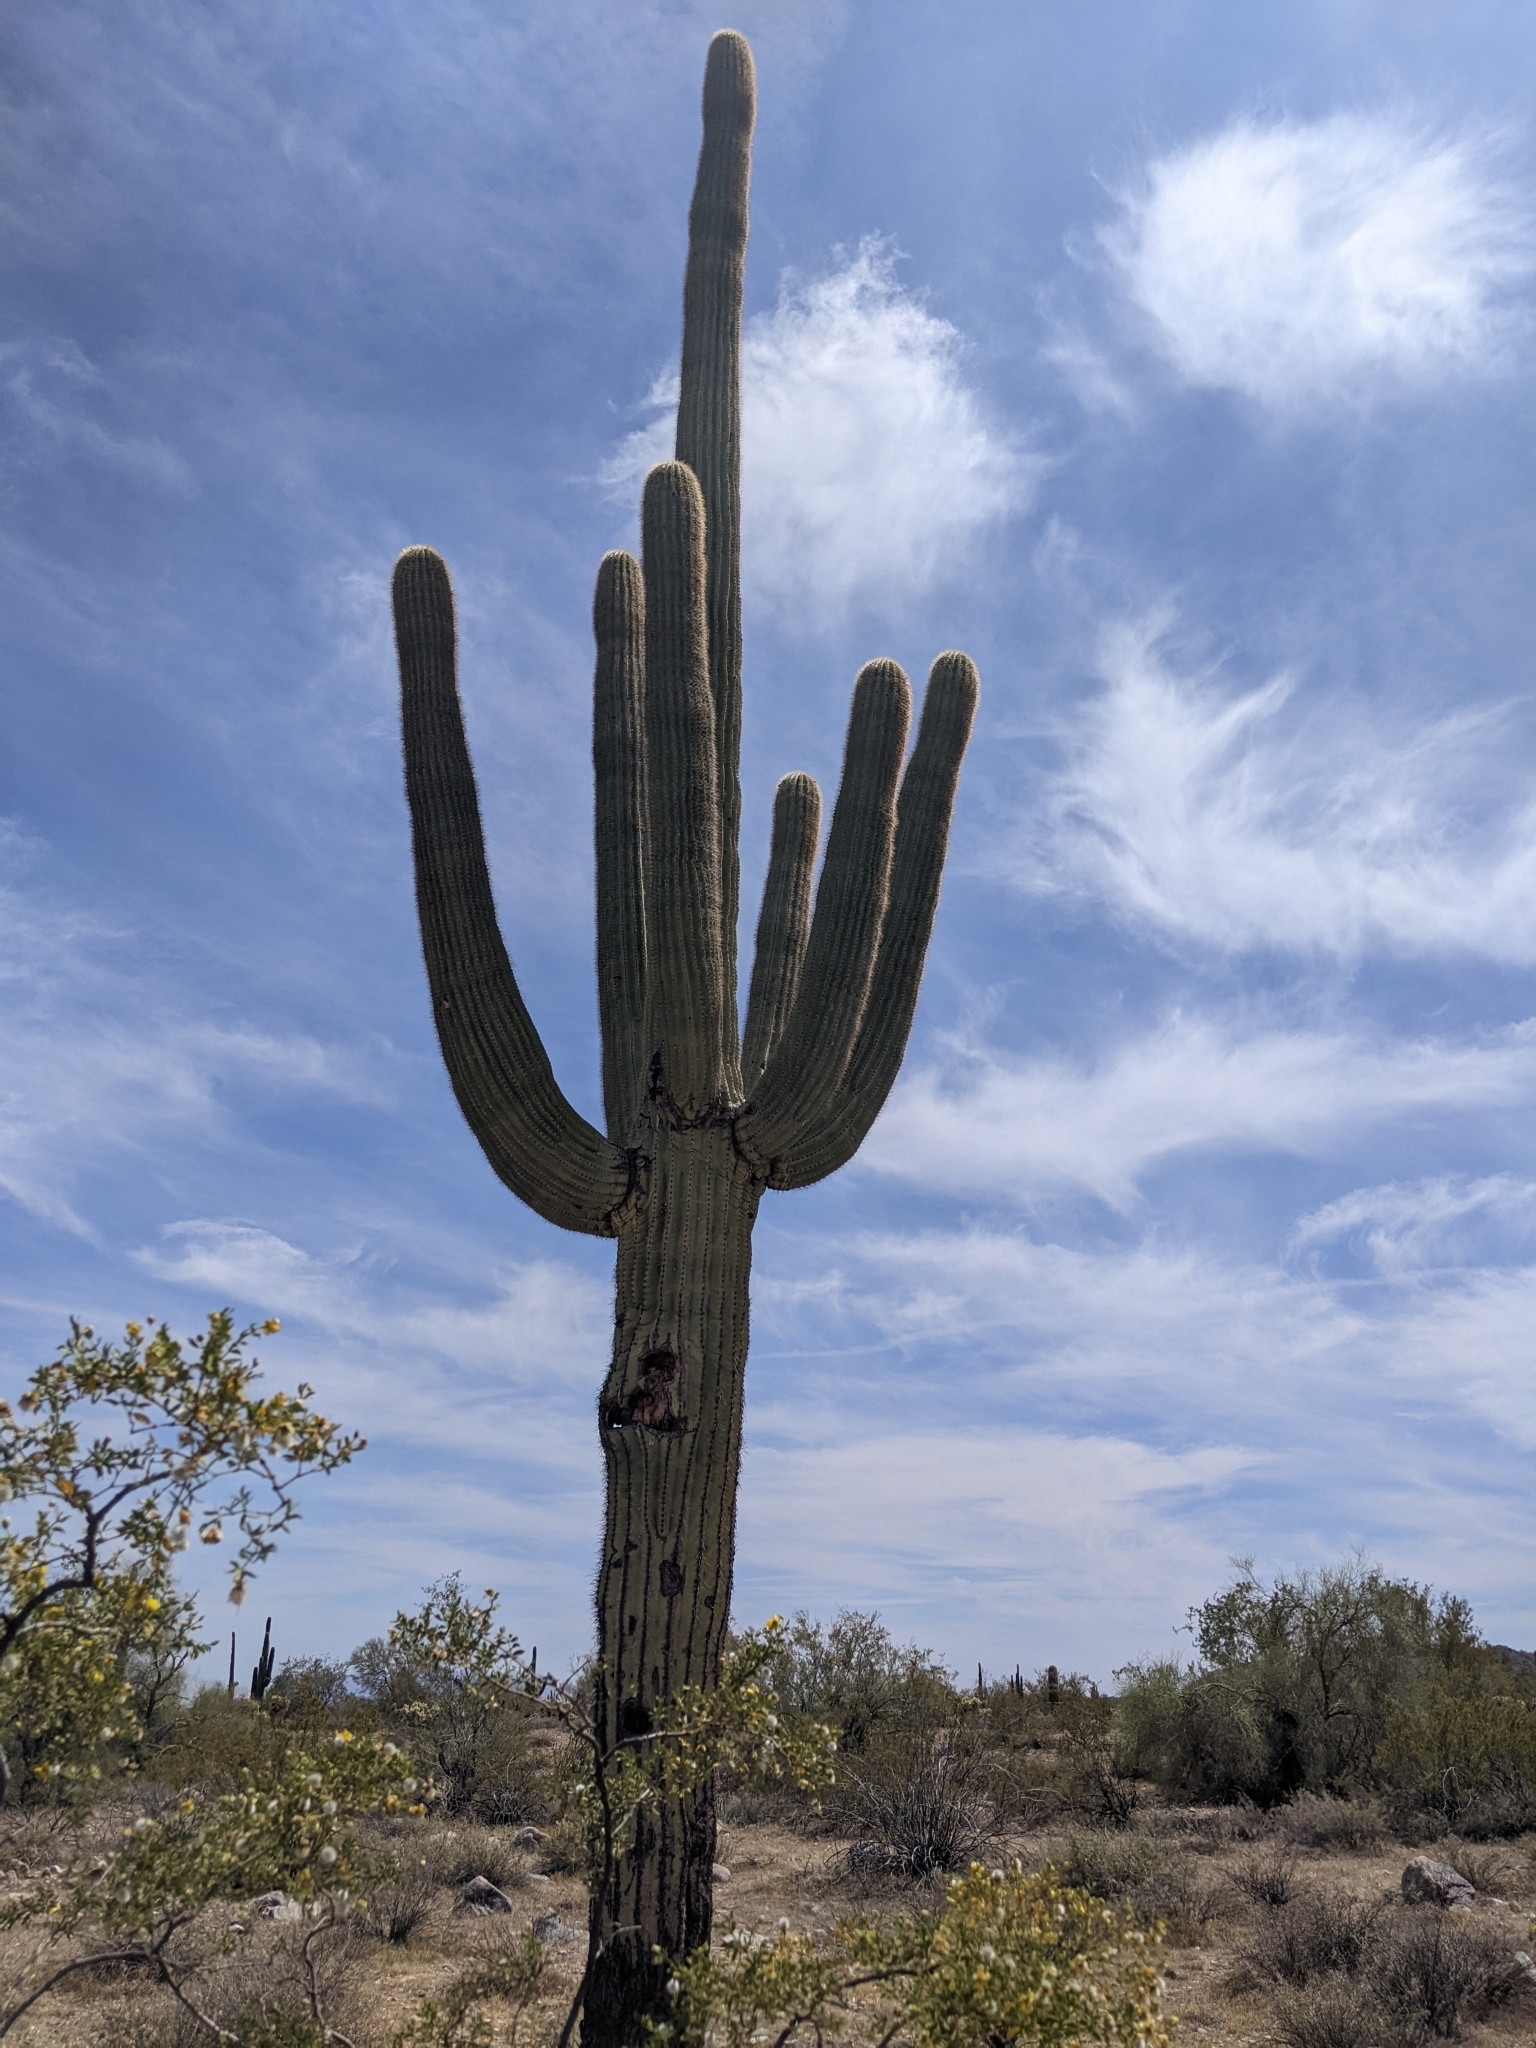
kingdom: Plantae
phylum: Tracheophyta
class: Magnoliopsida
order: Caryophyllales
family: Cactaceae
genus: Carnegiea
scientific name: Carnegiea gigantea
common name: Saguaro
